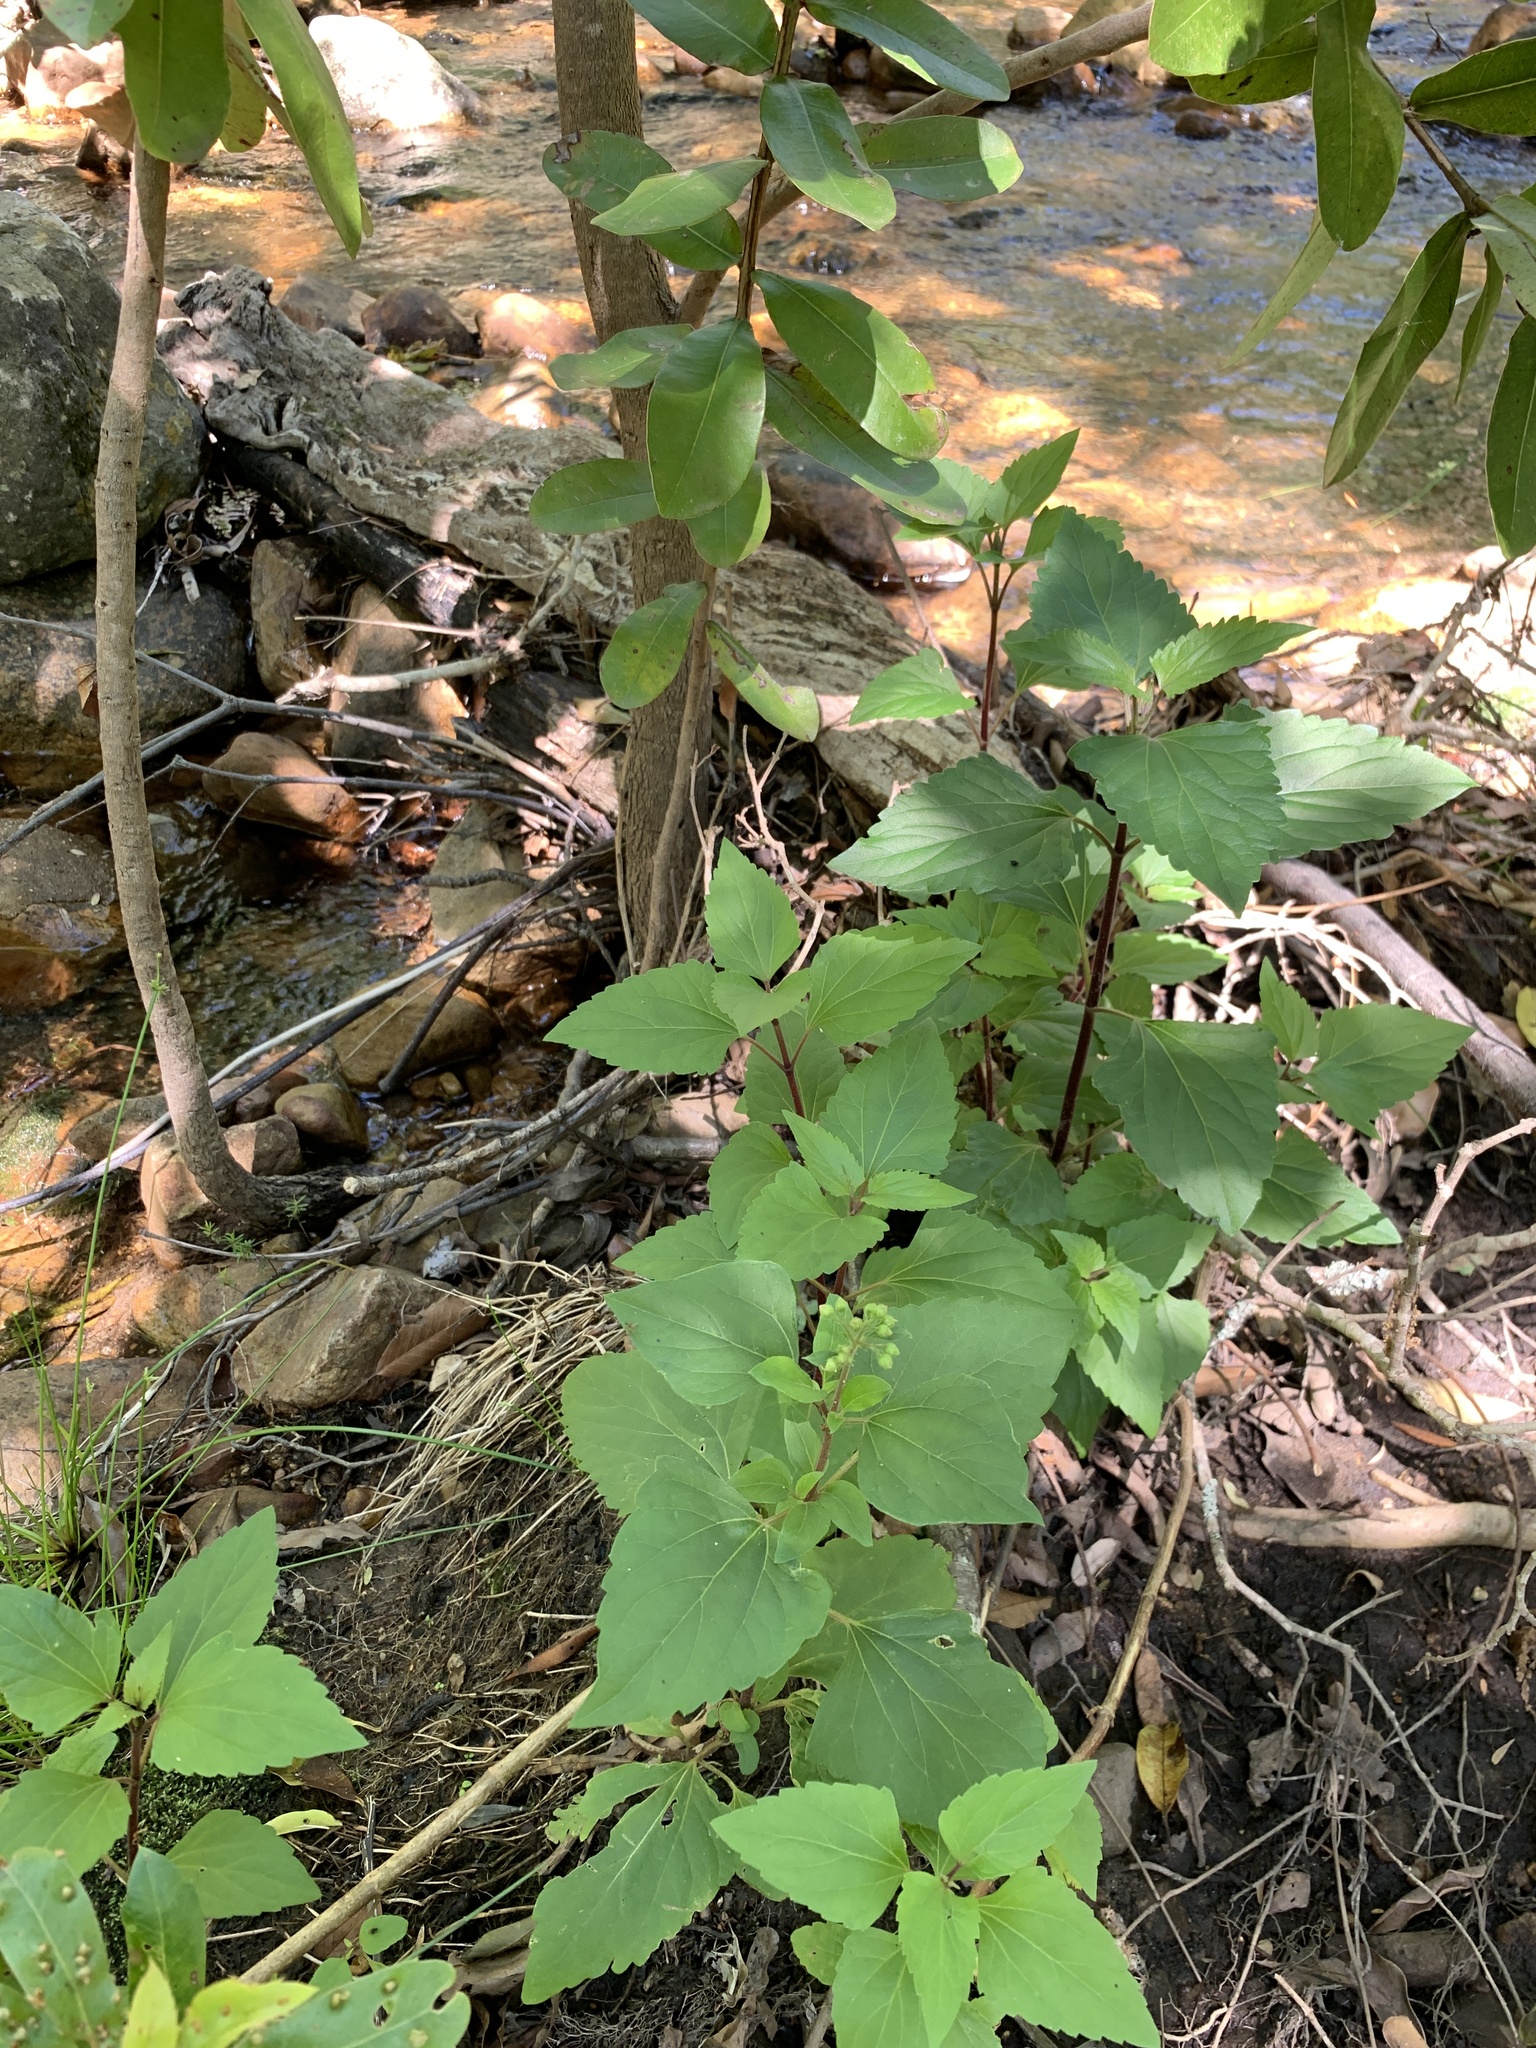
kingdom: Plantae
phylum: Tracheophyta
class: Magnoliopsida
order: Asterales
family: Asteraceae
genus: Ageratina
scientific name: Ageratina adenophora
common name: Sticky snakeroot
